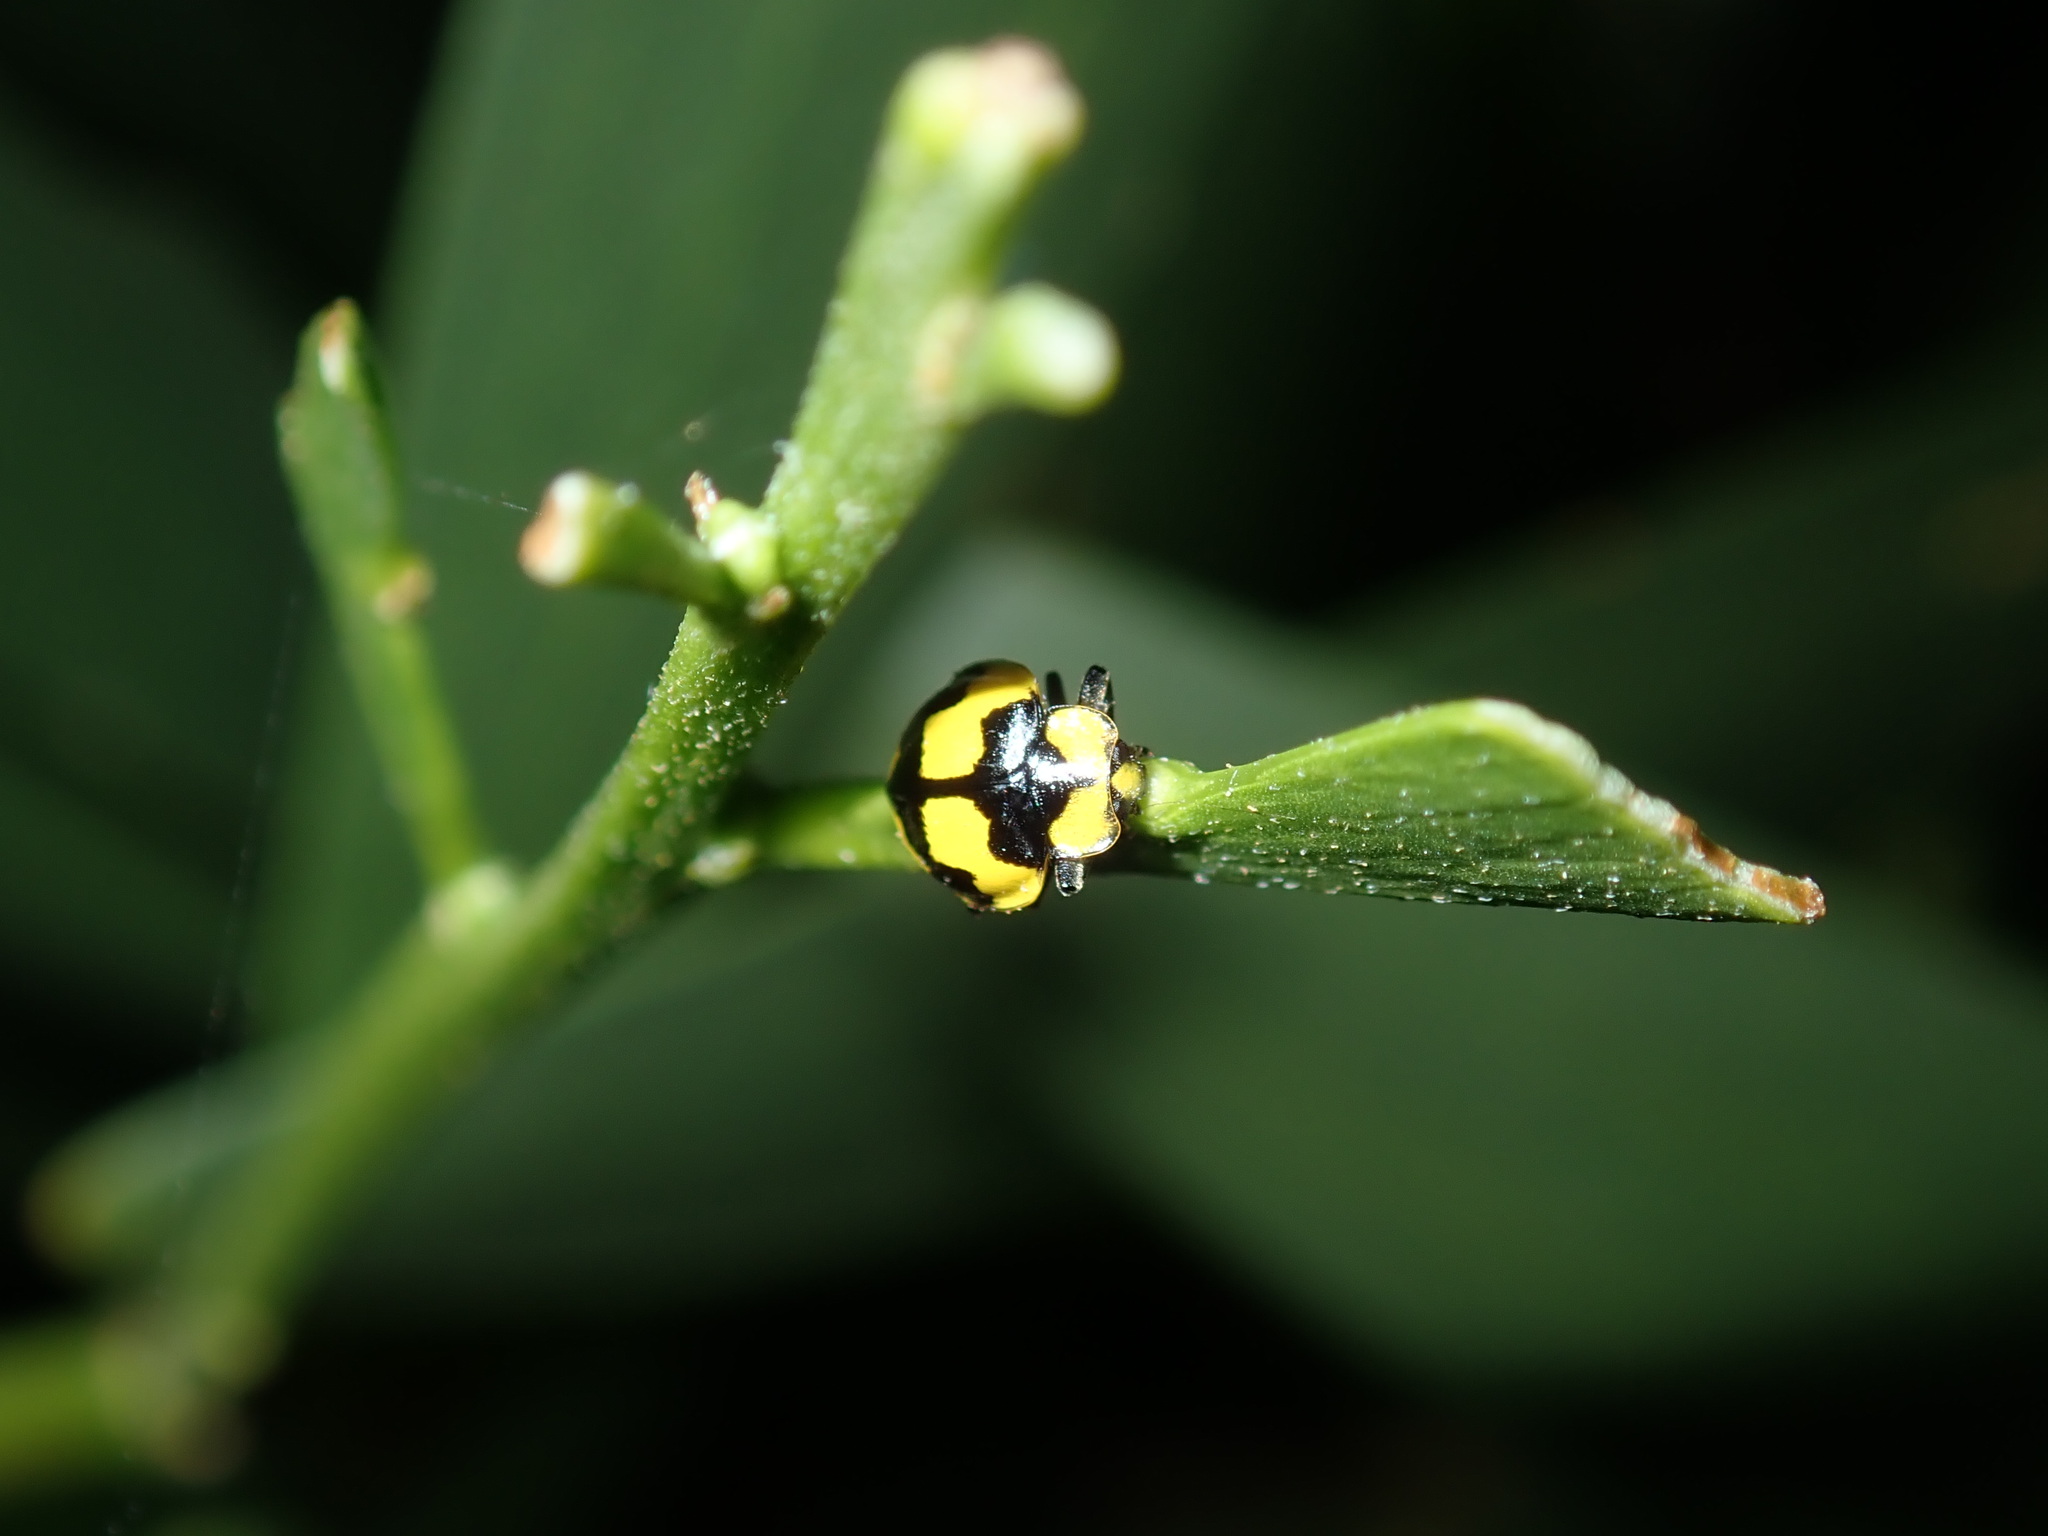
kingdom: Animalia
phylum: Arthropoda
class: Insecta
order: Coleoptera
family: Coccinellidae
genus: Illeis
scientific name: Illeis galbula
